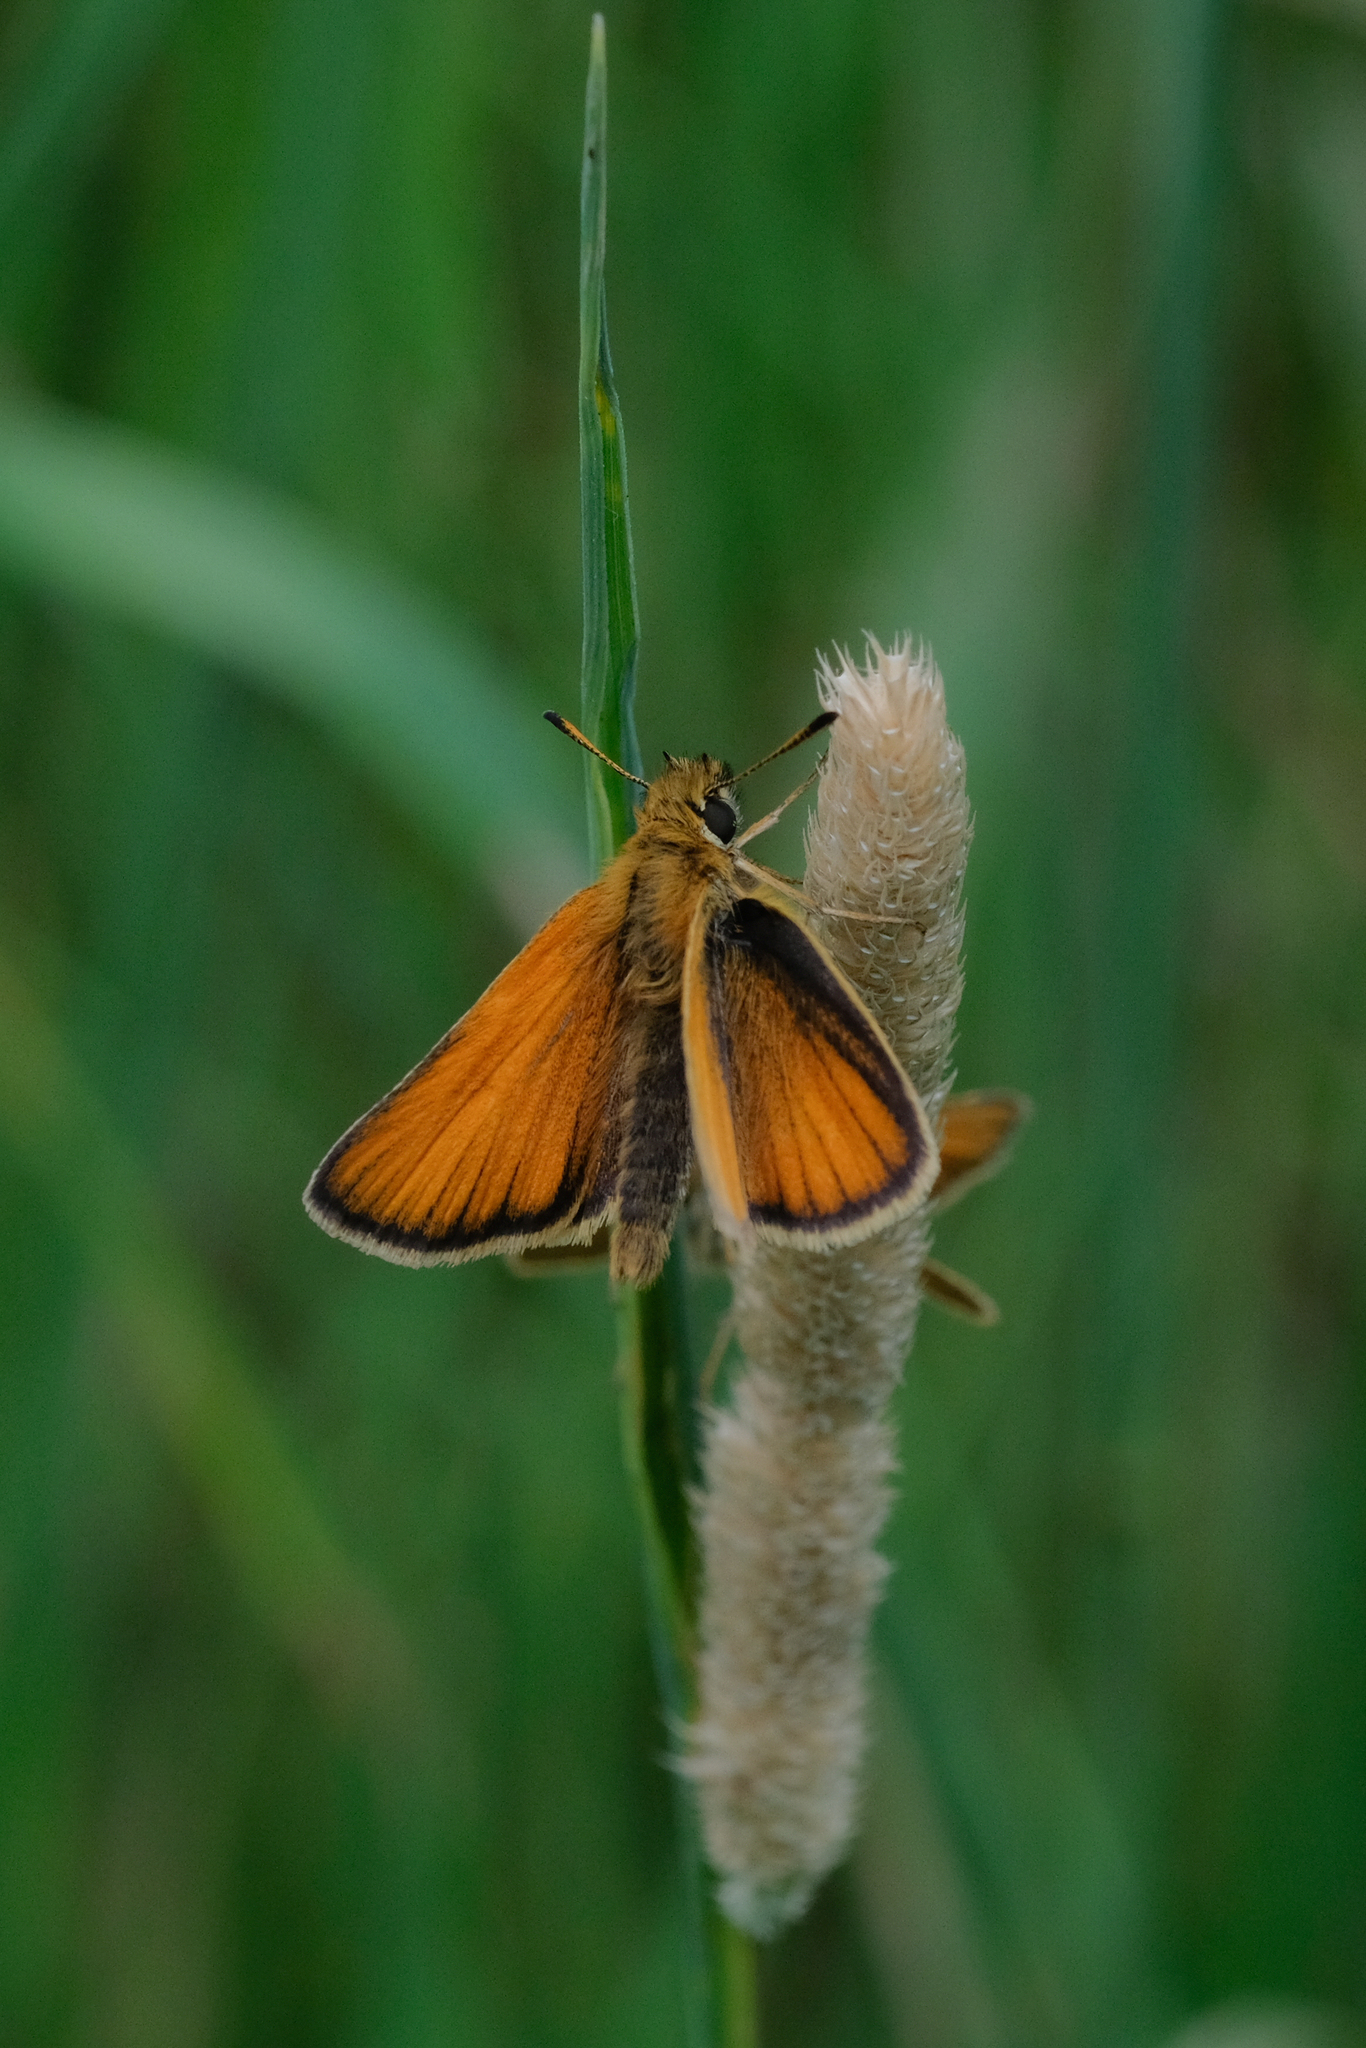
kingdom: Animalia
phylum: Arthropoda
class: Insecta
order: Lepidoptera
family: Hesperiidae
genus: Thymelicus
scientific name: Thymelicus lineola
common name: Essex skipper
